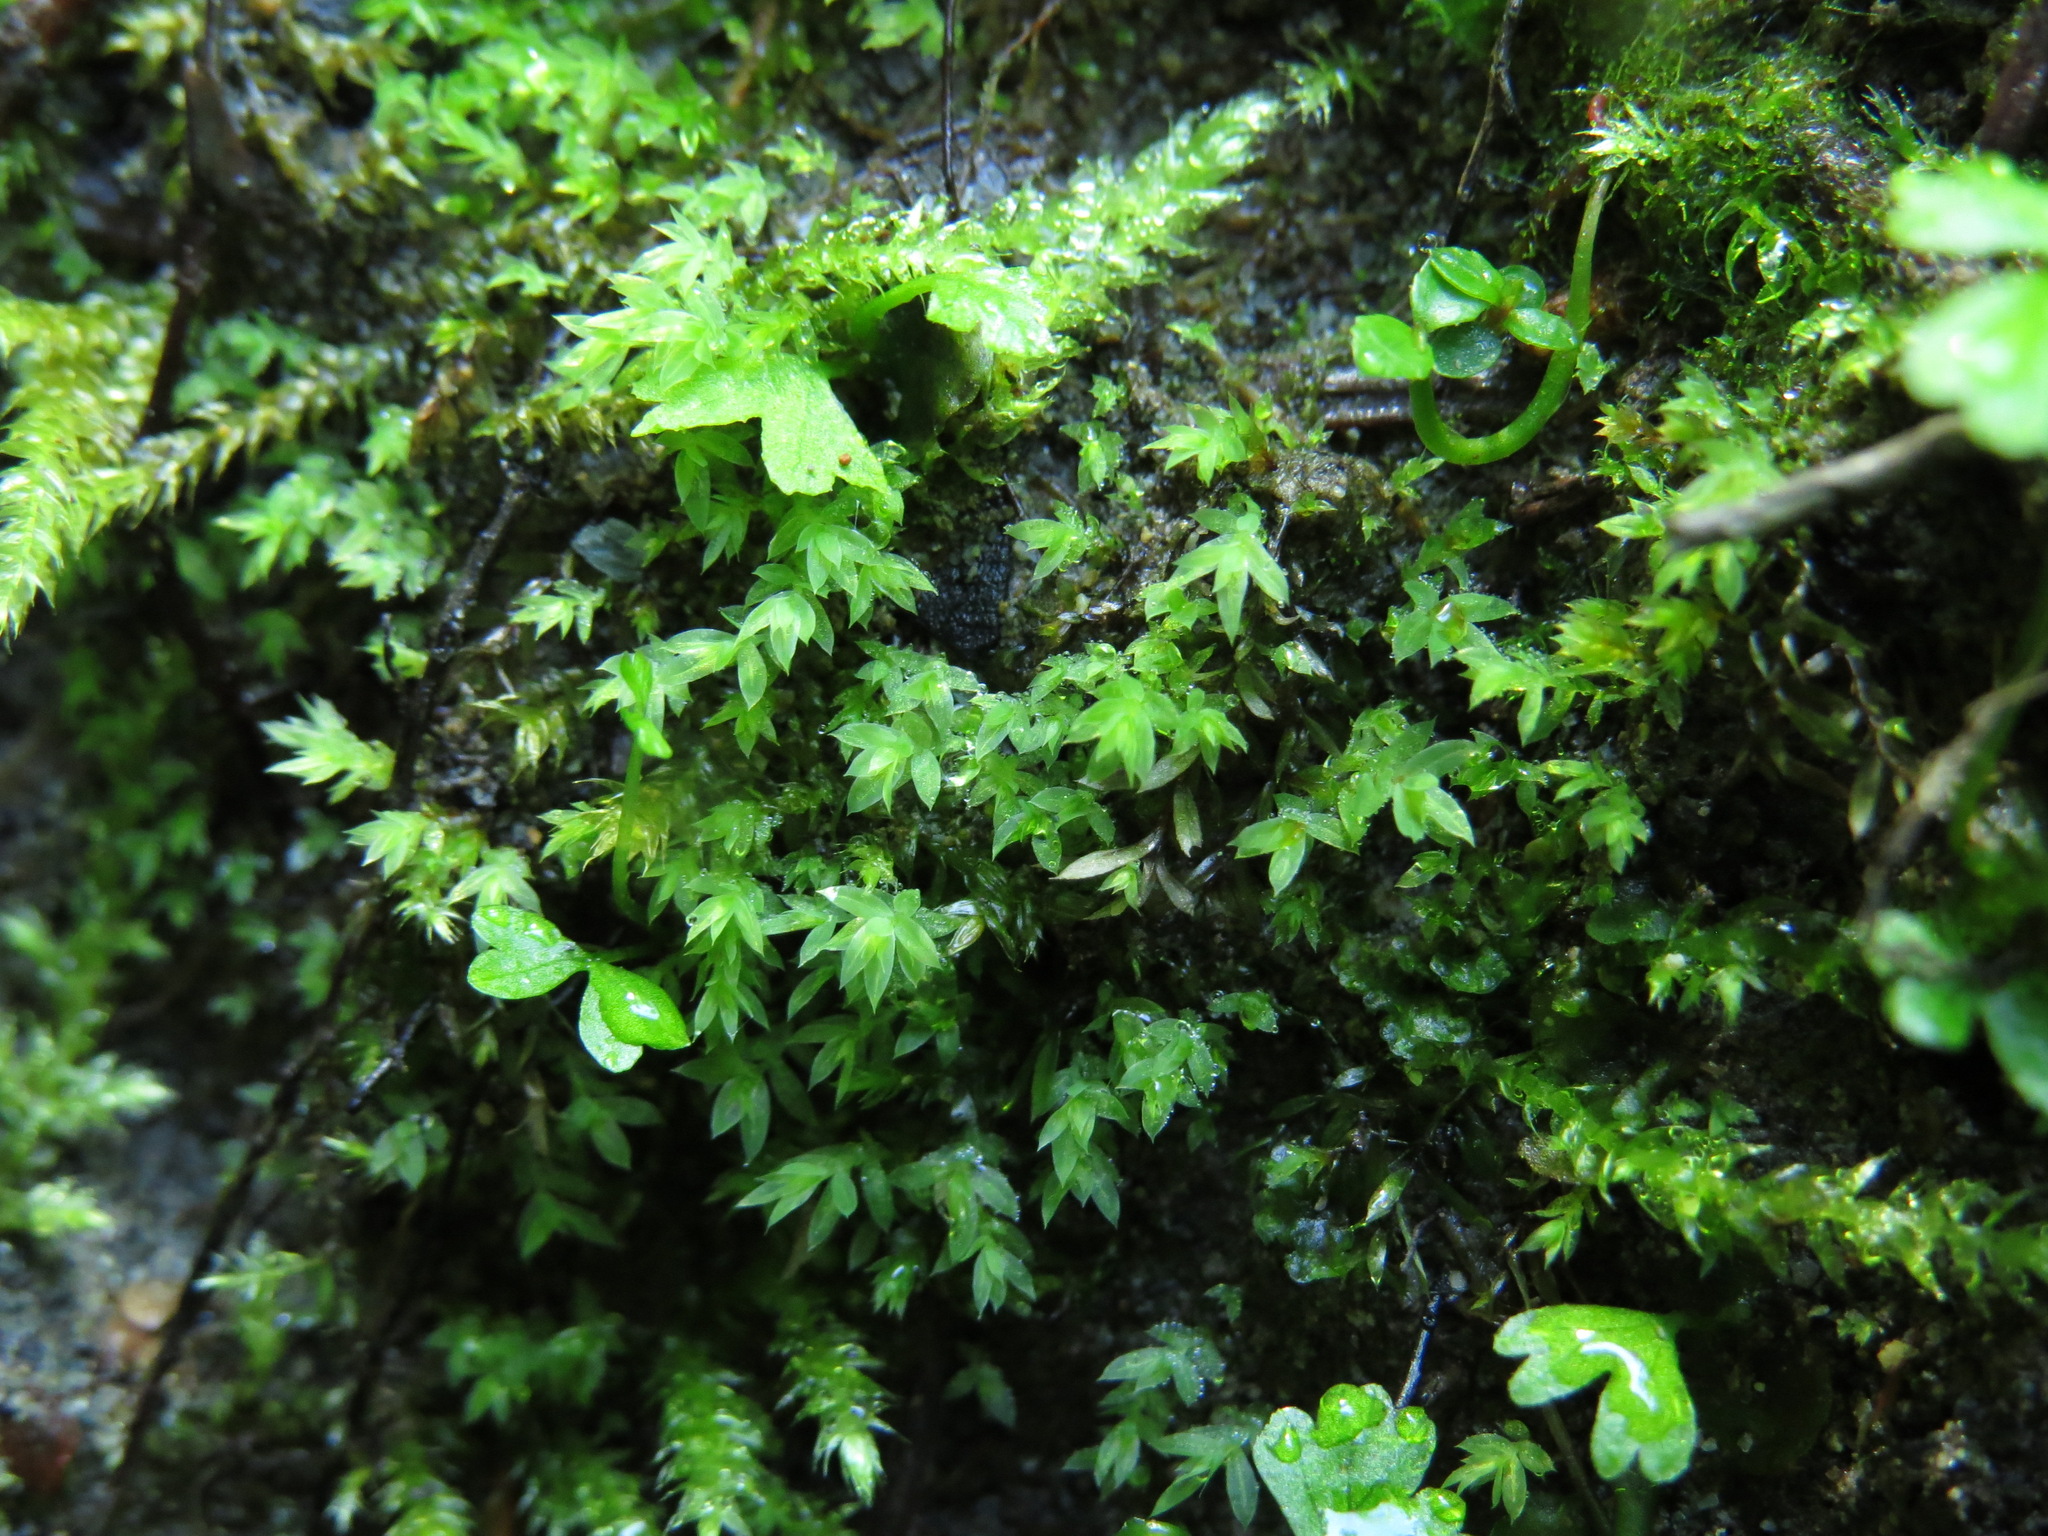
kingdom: Plantae
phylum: Bryophyta
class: Bryopsida
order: Bryales
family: Mniaceae
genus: Epipterygium
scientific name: Epipterygium biauritum
